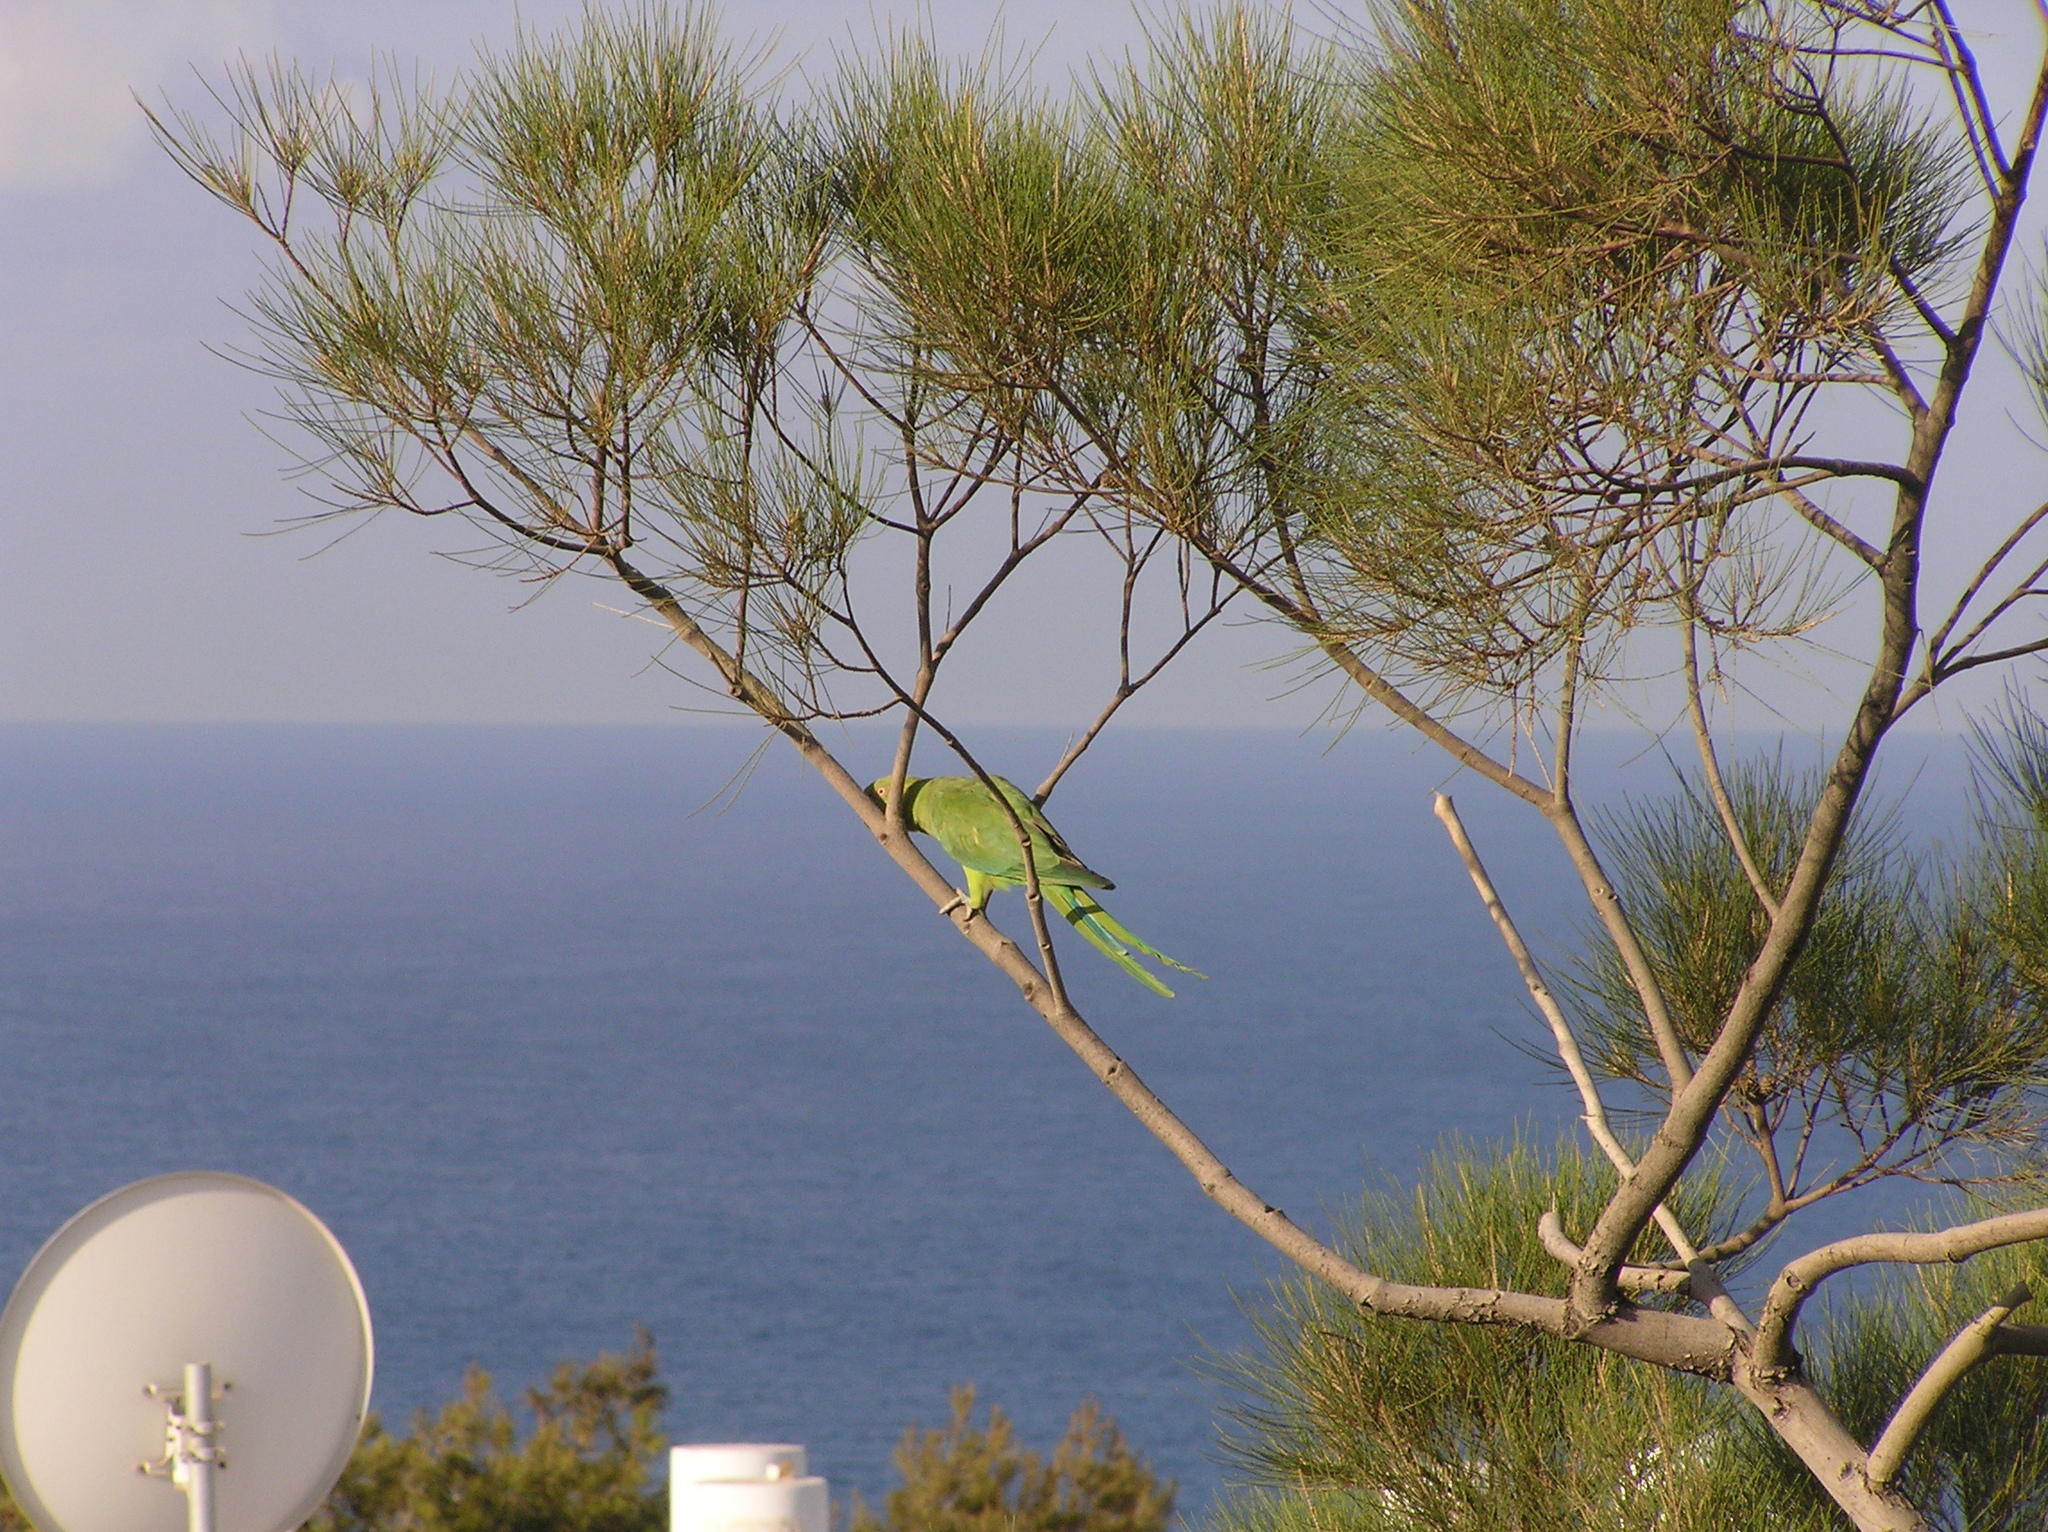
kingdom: Animalia
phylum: Chordata
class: Aves
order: Psittaciformes
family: Psittacidae
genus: Psittacula
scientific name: Psittacula krameri
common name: Rose-ringed parakeet
